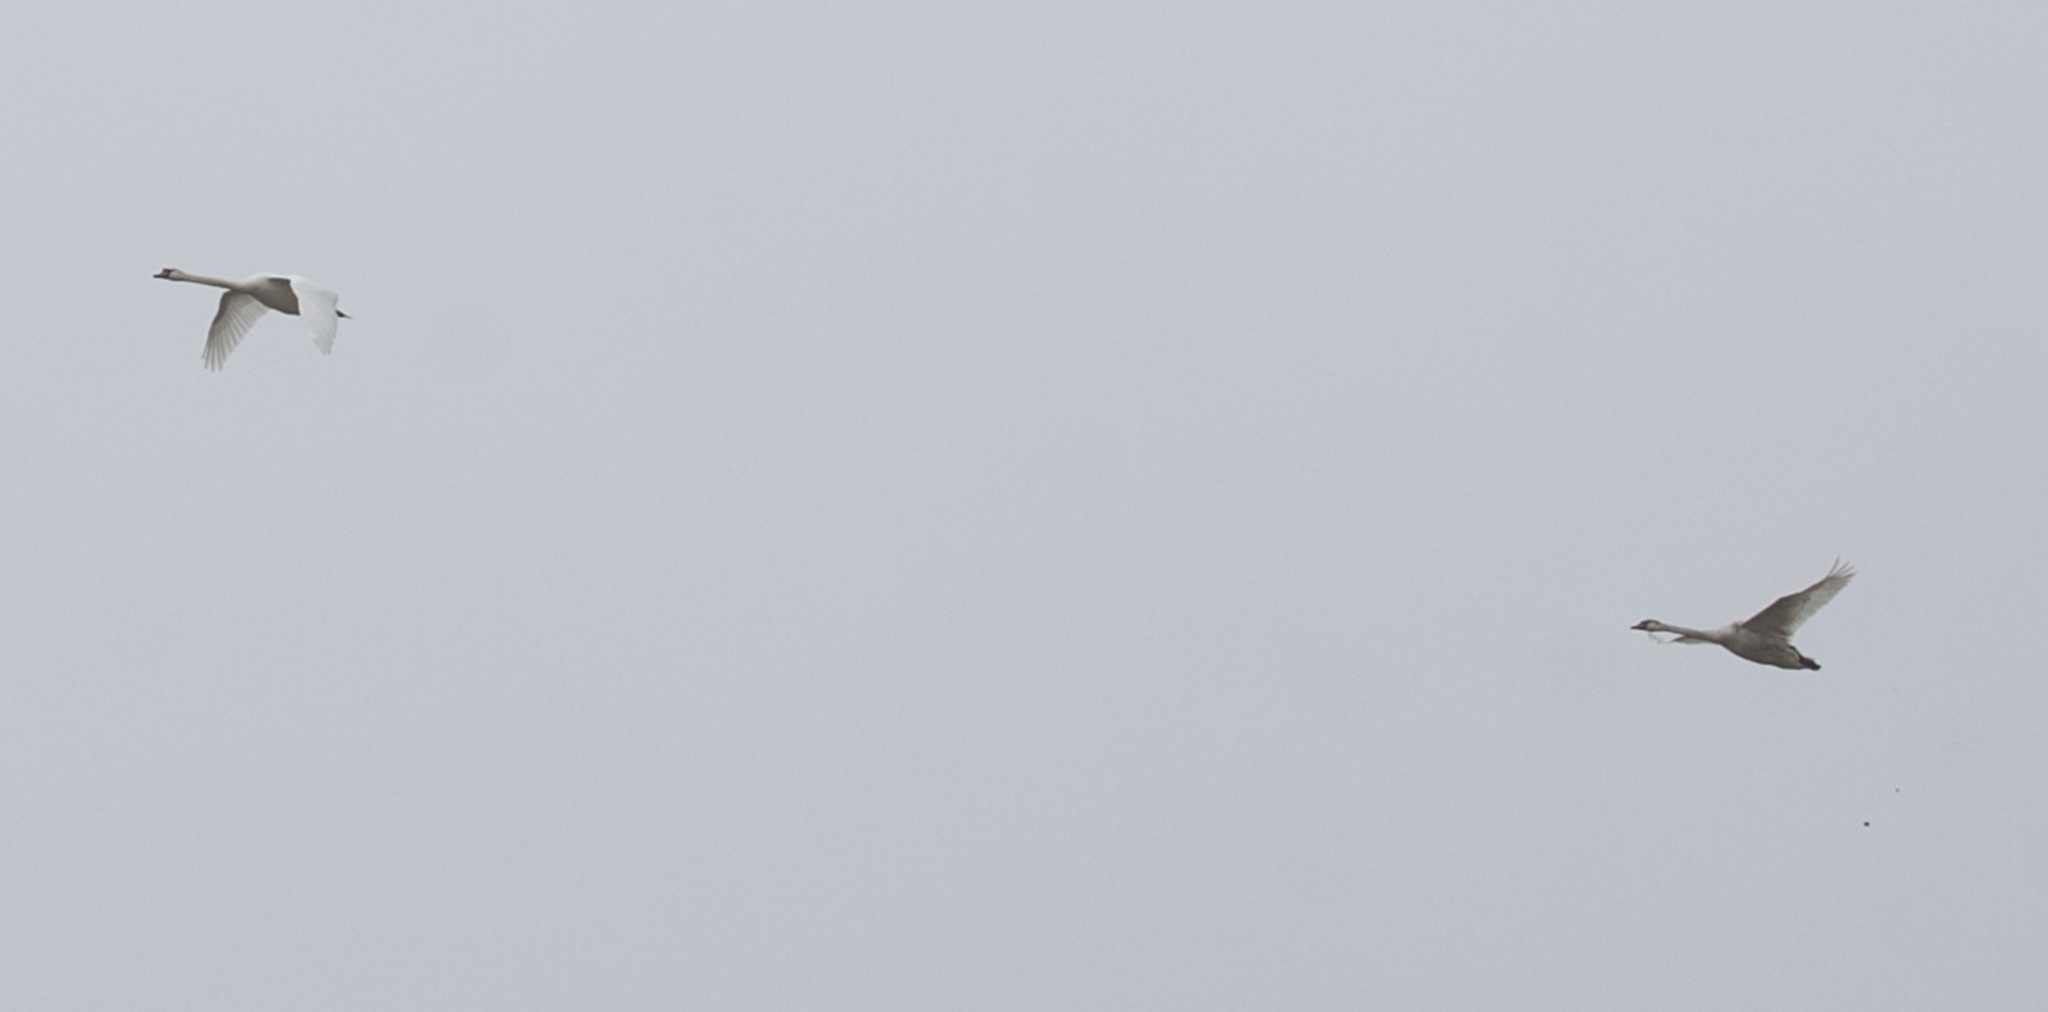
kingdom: Animalia
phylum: Chordata
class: Aves
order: Anseriformes
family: Anatidae
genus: Cygnus
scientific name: Cygnus olor
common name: Mute swan
